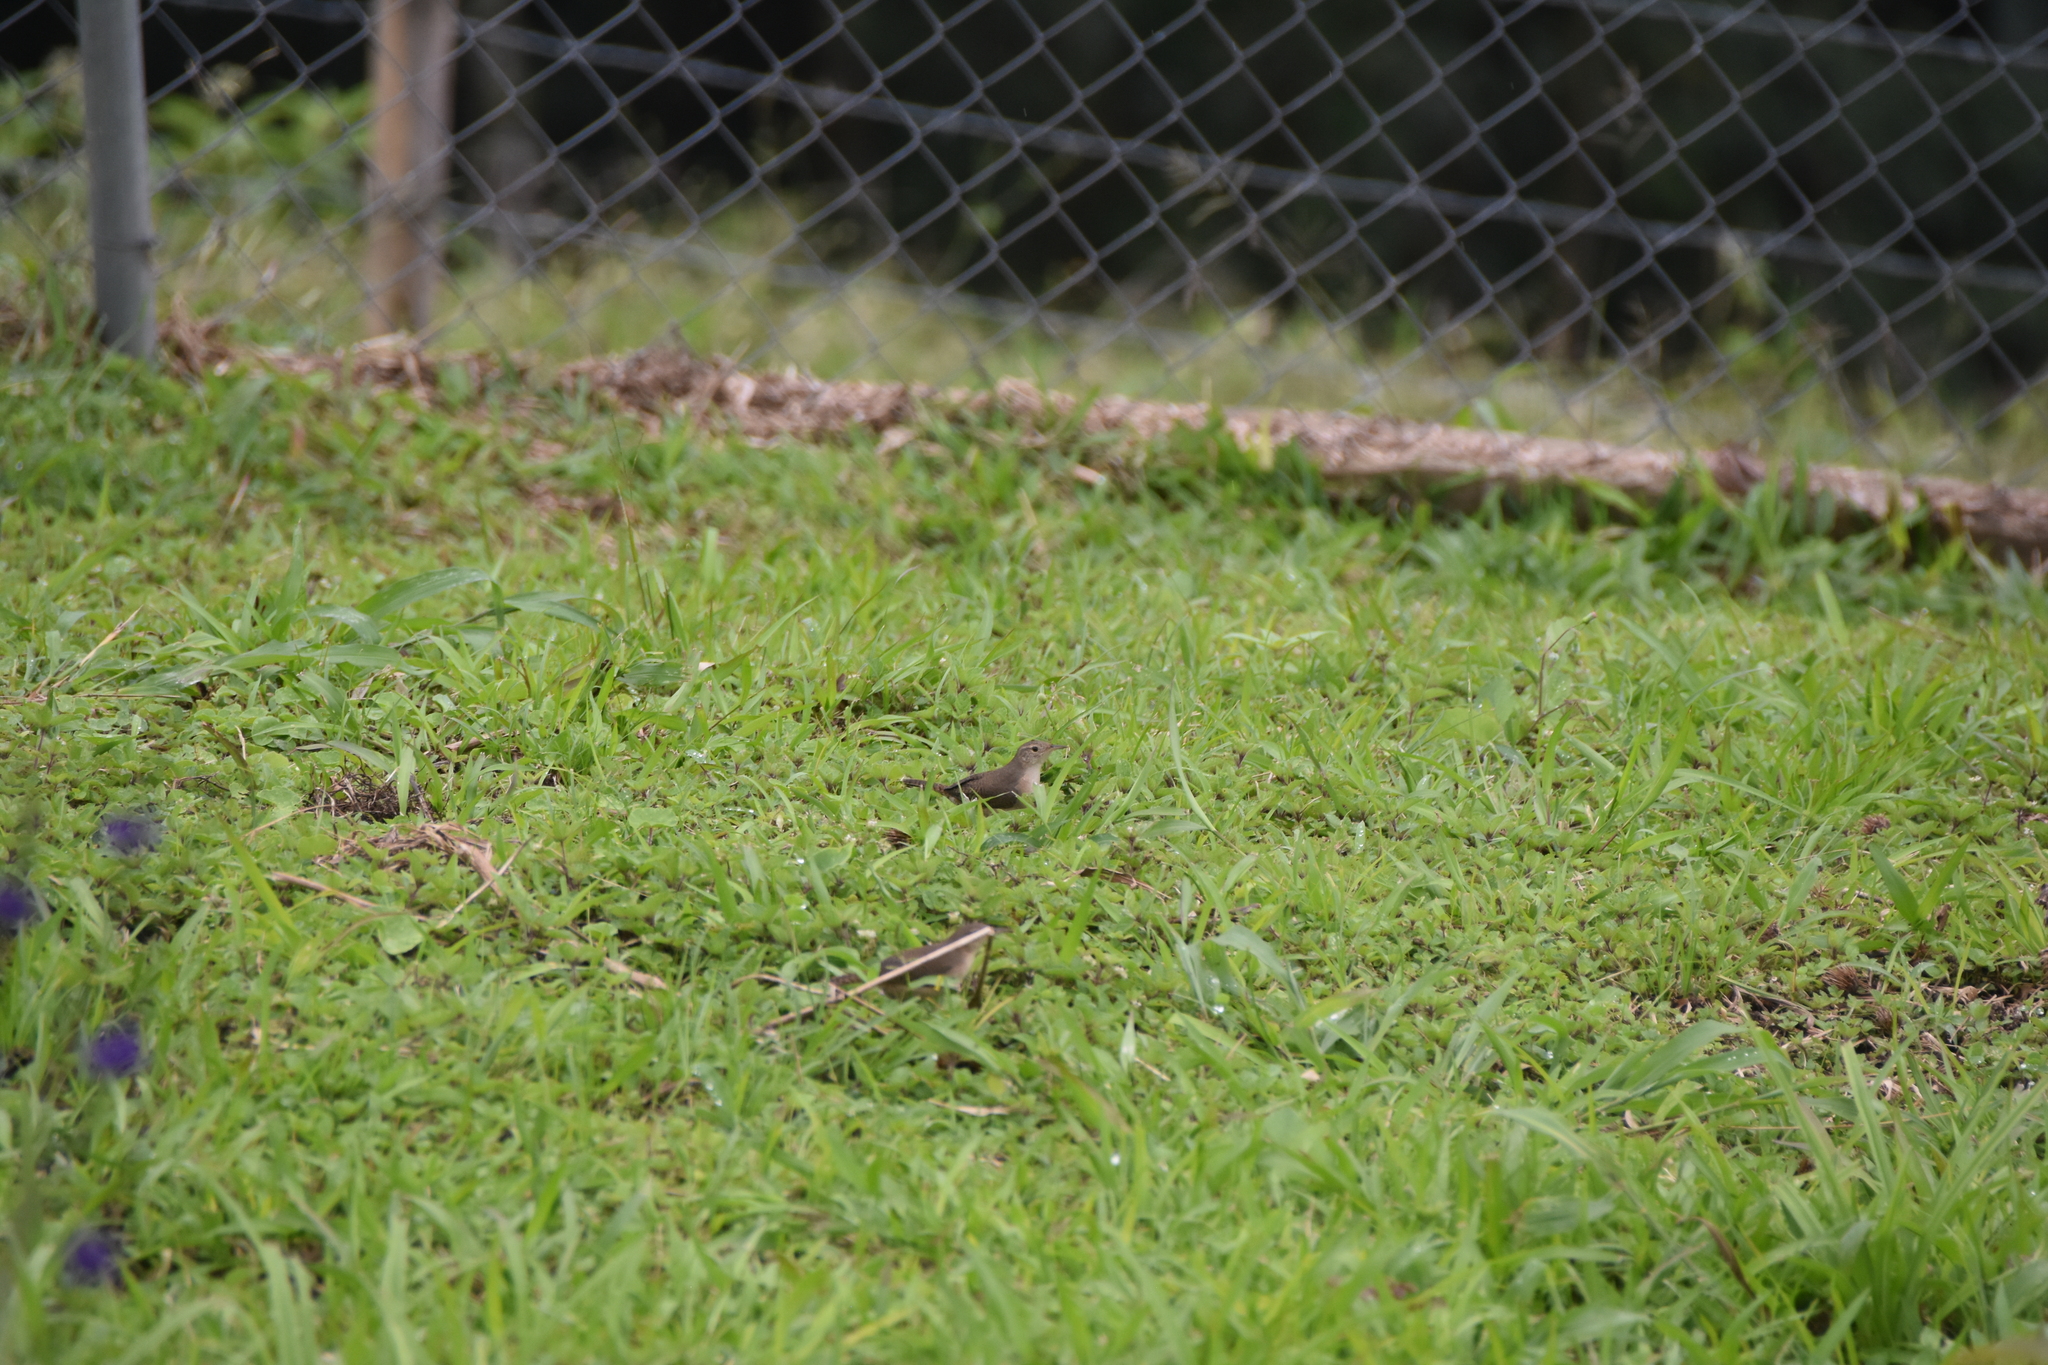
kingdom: Animalia
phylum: Chordata
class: Aves
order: Passeriformes
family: Troglodytidae
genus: Troglodytes
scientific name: Troglodytes aedon
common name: House wren
